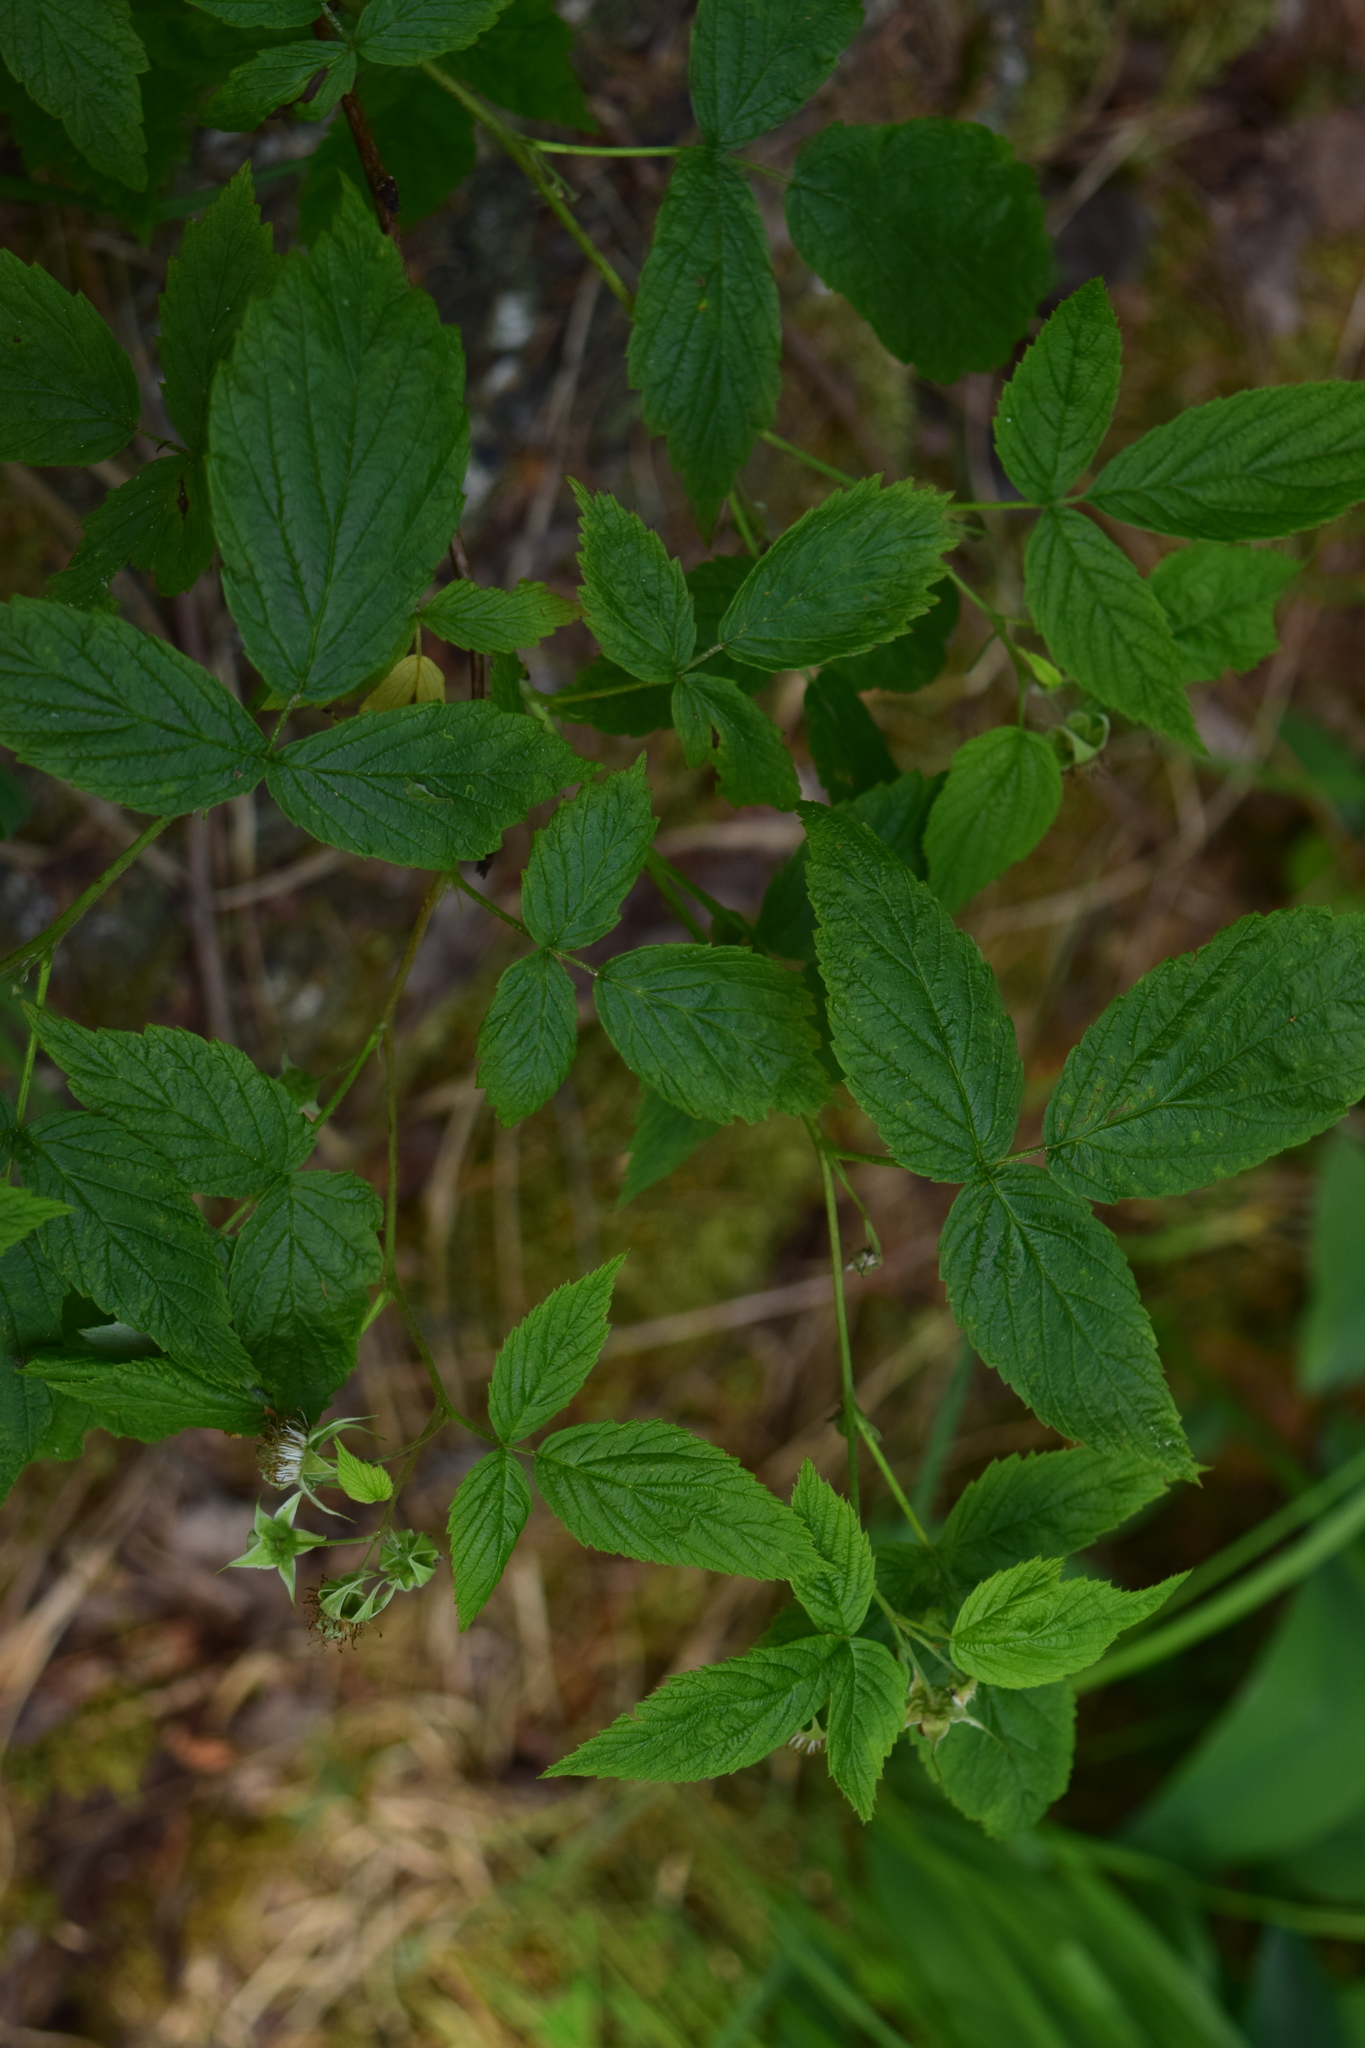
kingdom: Plantae
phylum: Tracheophyta
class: Magnoliopsida
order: Rosales
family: Rosaceae
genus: Rubus
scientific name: Rubus idaeus
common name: Raspberry
